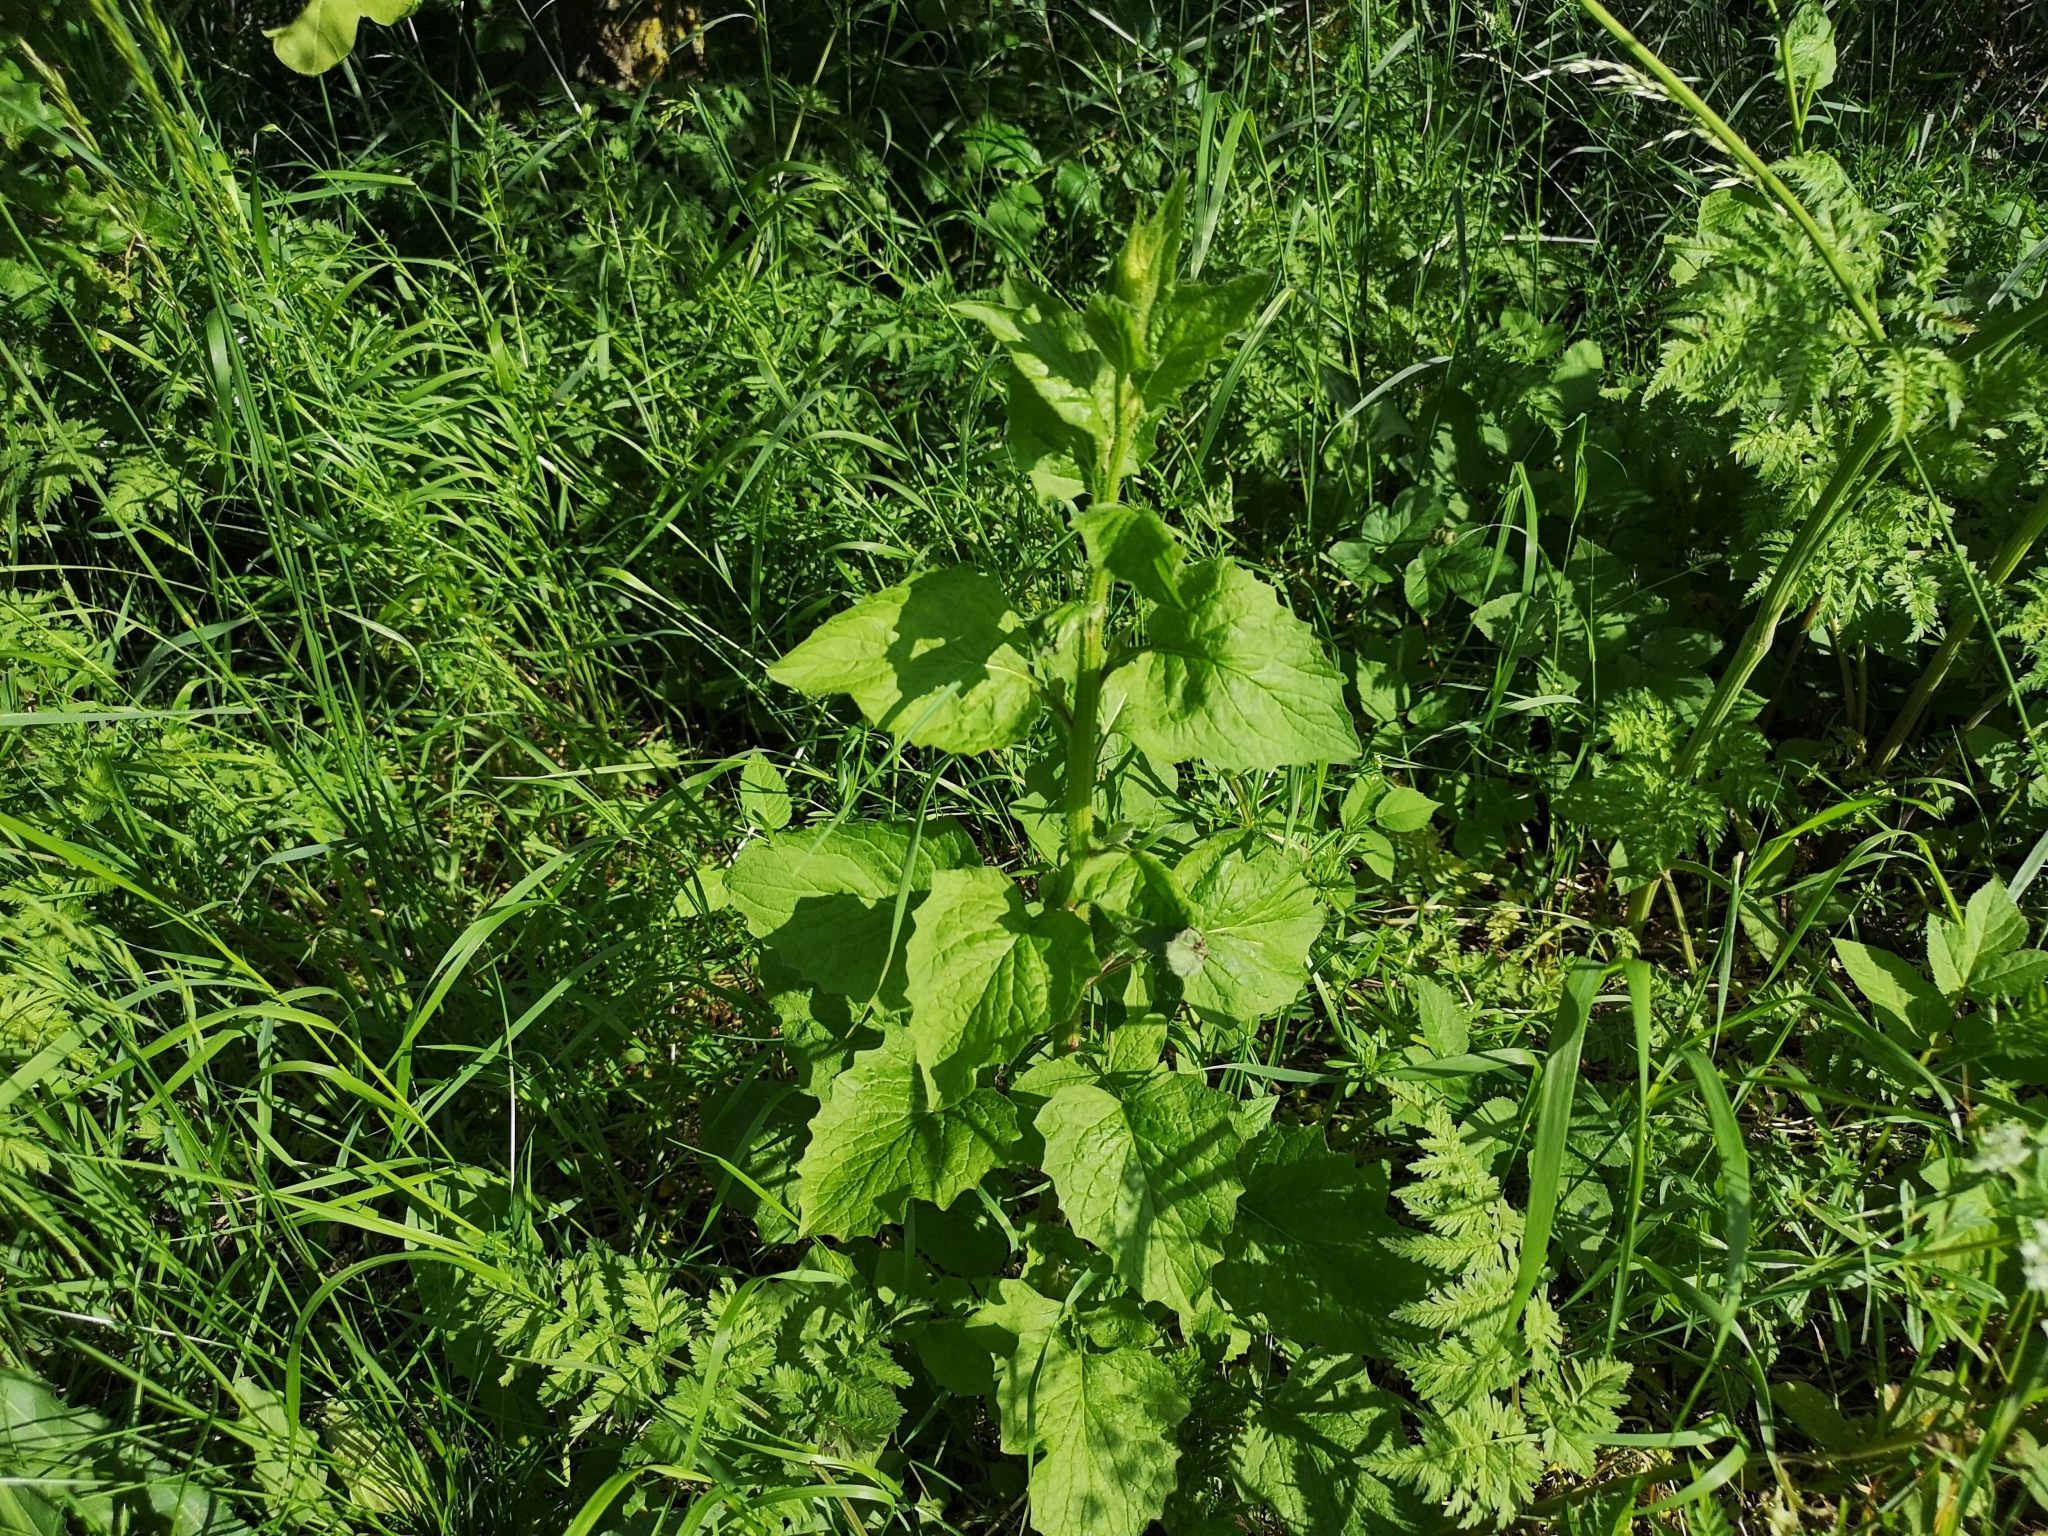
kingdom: Plantae
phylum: Tracheophyta
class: Magnoliopsida
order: Asterales
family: Asteraceae
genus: Lapsana
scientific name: Lapsana communis
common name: Nipplewort
